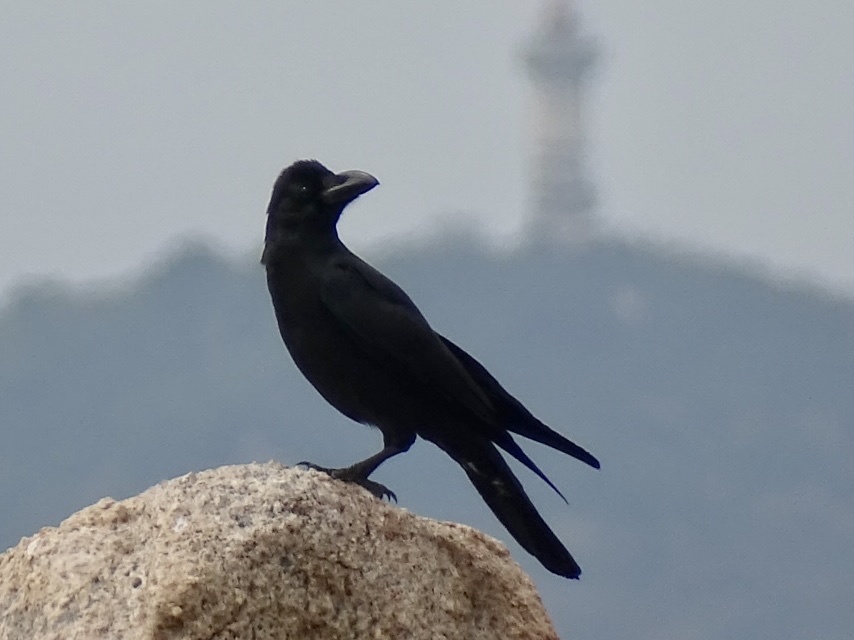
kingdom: Animalia
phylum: Chordata
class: Aves
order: Passeriformes
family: Corvidae
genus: Corvus
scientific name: Corvus macrorhynchos
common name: Large-billed crow
